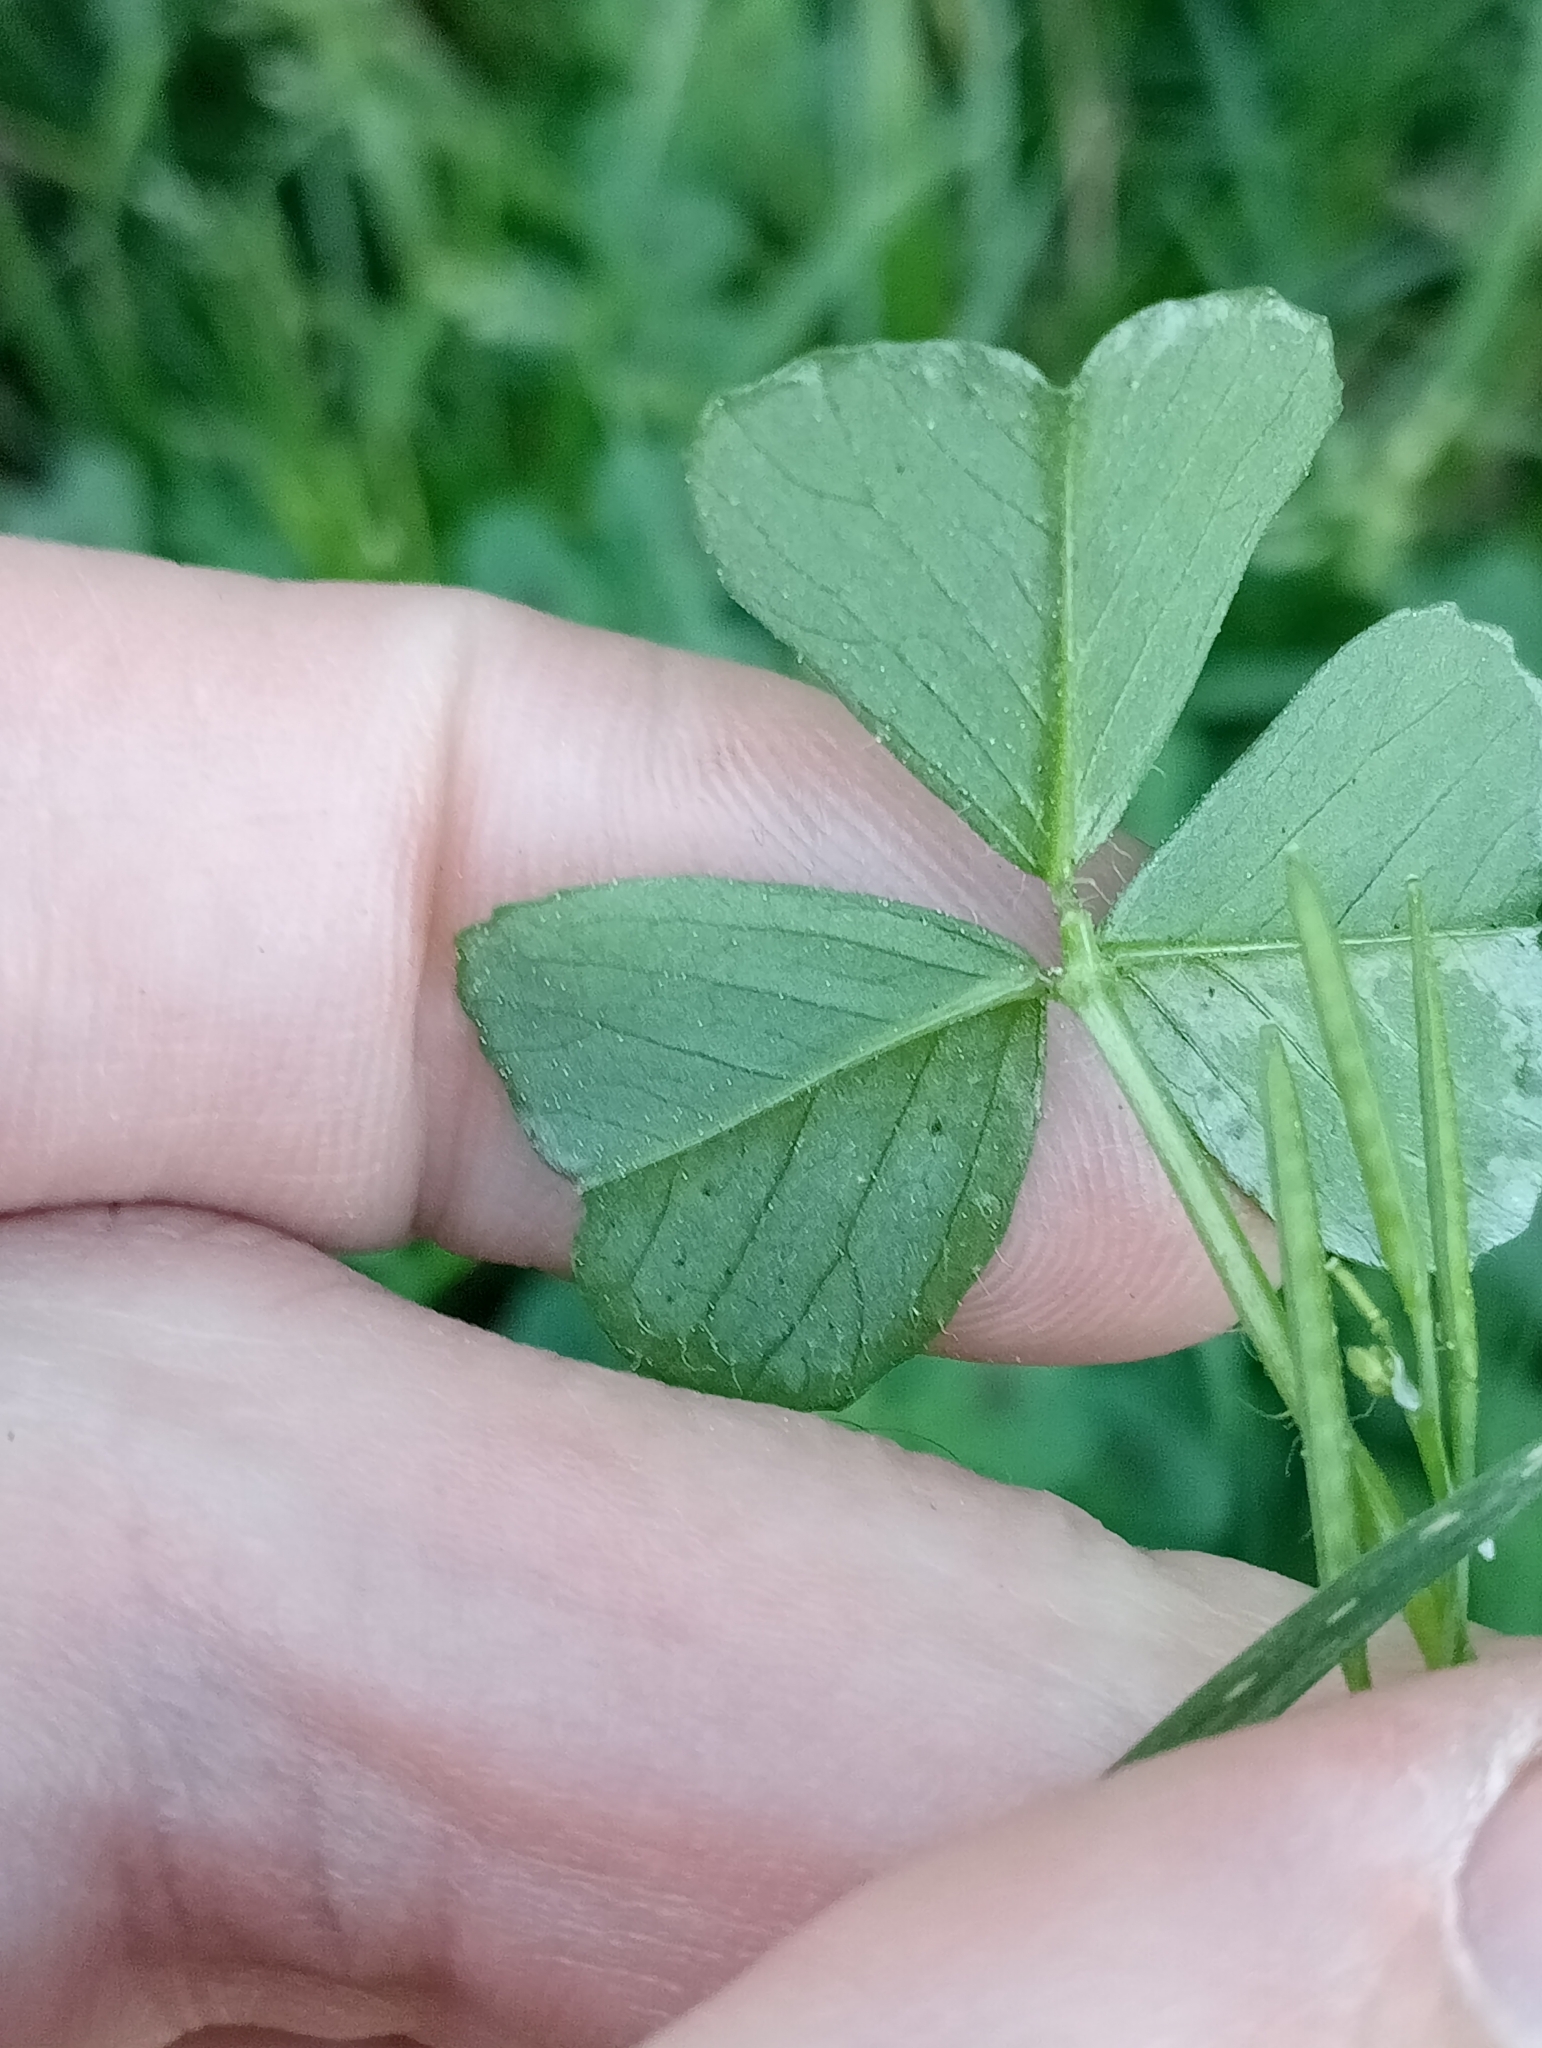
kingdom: Plantae
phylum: Tracheophyta
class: Magnoliopsida
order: Fabales
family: Fabaceae
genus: Medicago
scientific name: Medicago arabica
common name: Spotted medick
